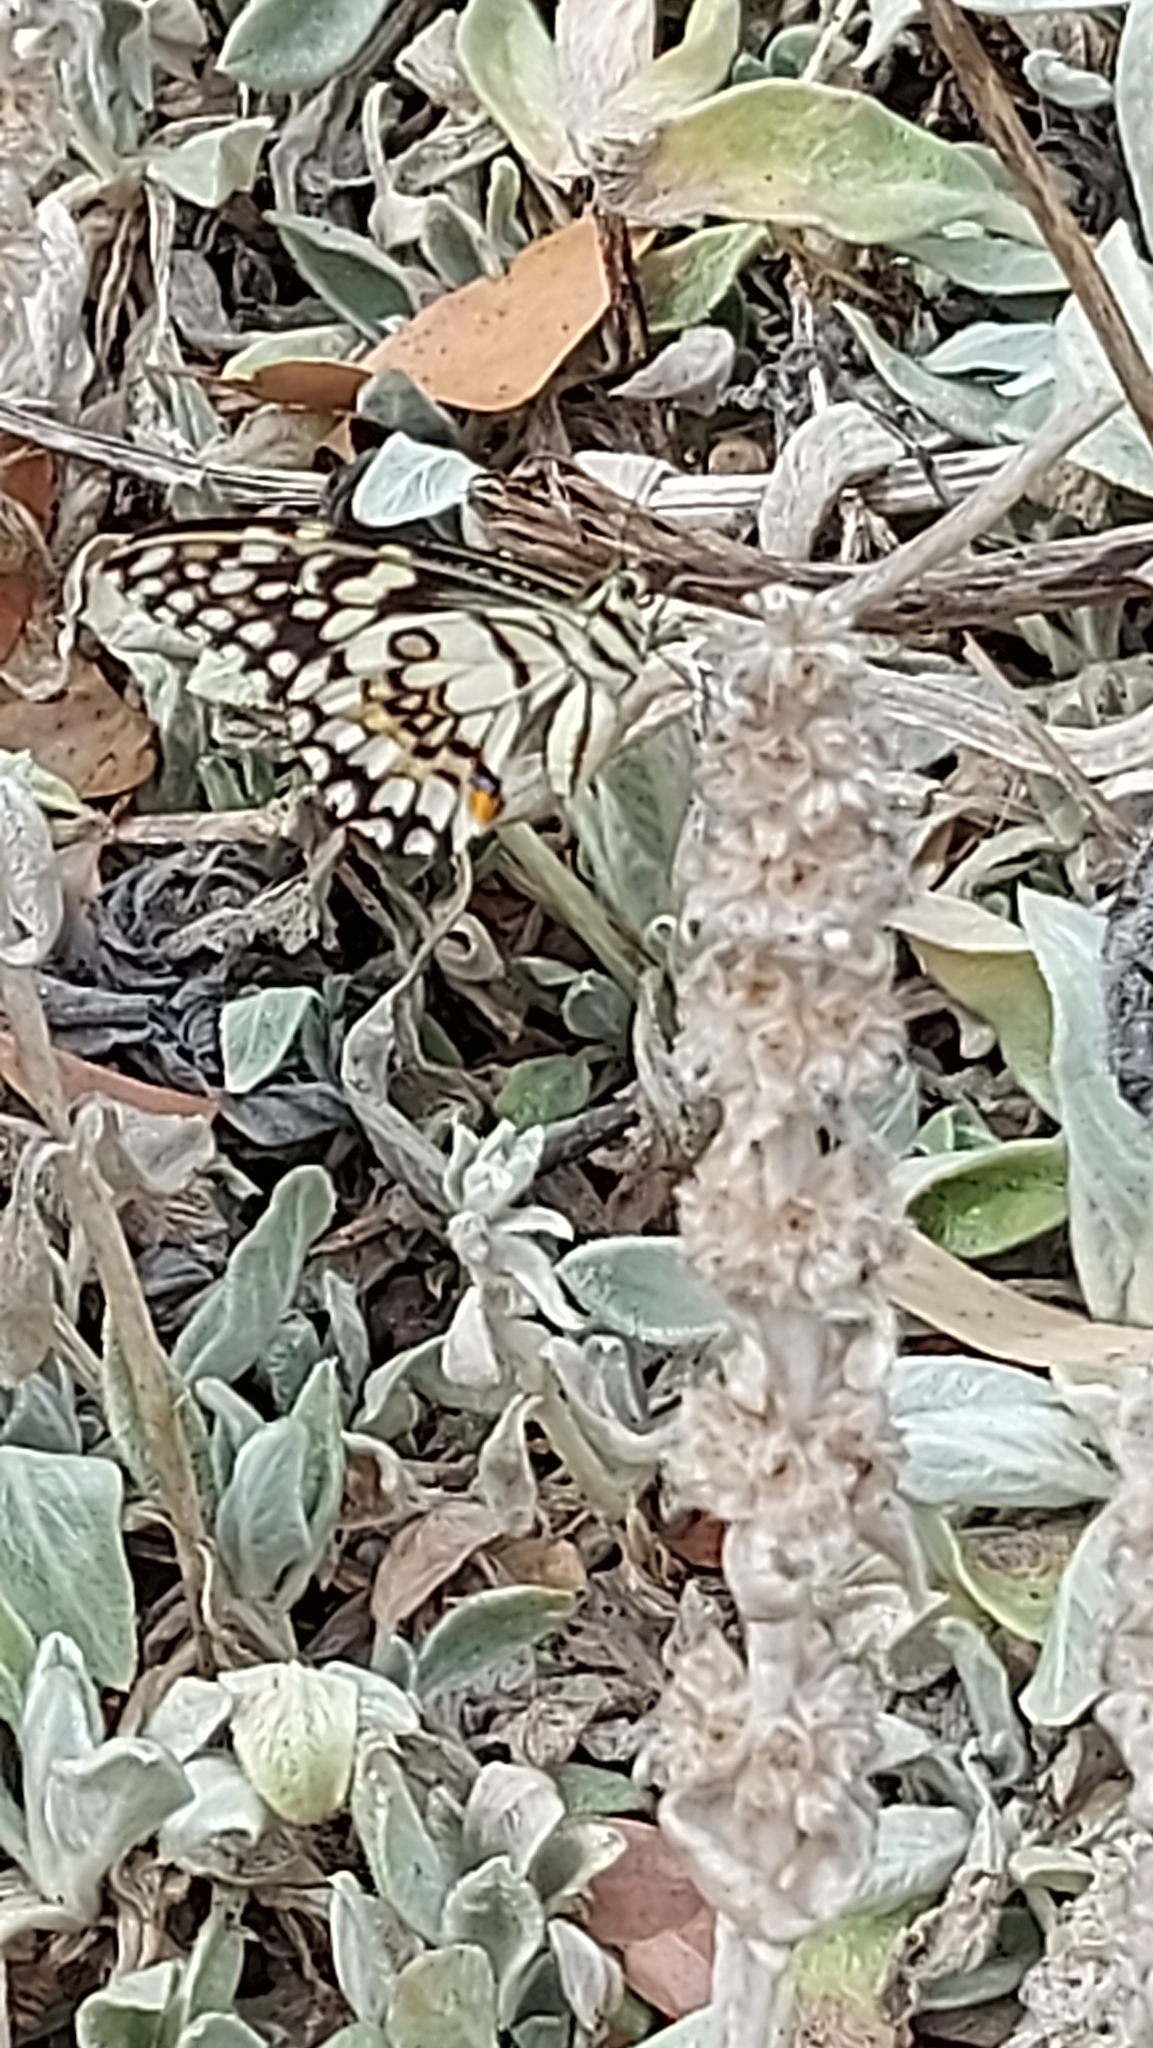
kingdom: Animalia
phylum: Arthropoda
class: Insecta
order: Lepidoptera
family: Papilionidae
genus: Papilio
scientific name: Papilio demoleus
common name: Lime butterfly
